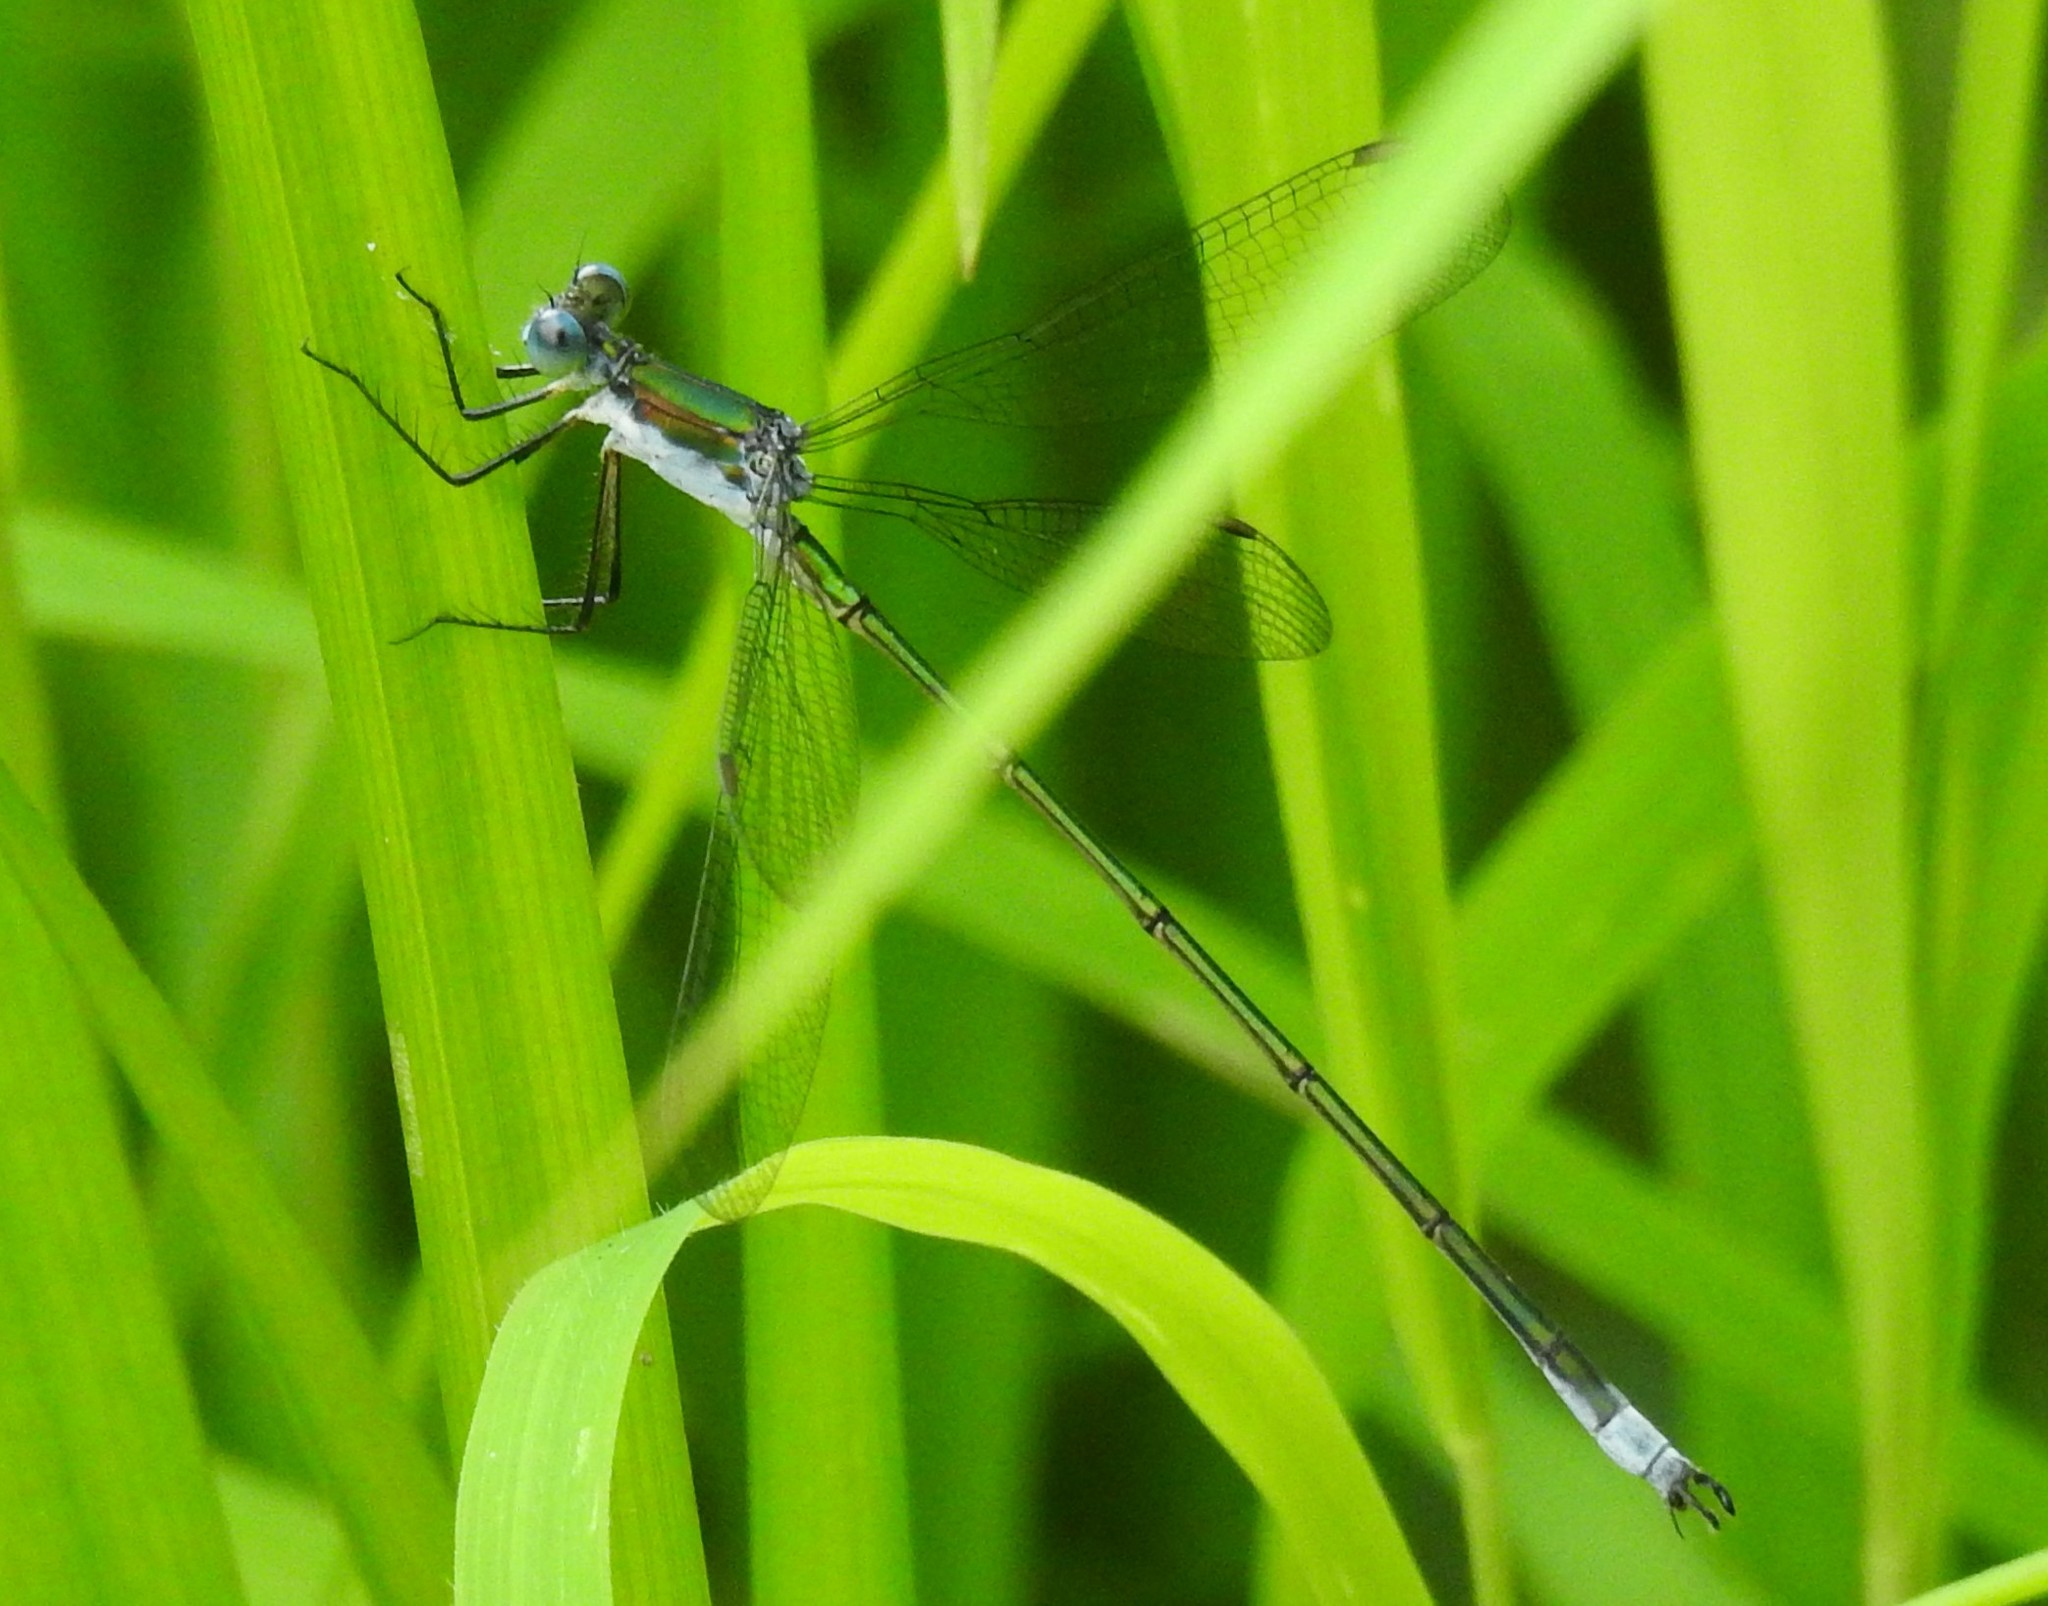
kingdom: Animalia
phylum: Arthropoda
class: Insecta
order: Odonata
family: Lestidae
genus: Lestes
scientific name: Lestes vigilax
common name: Swamp spreadwing
